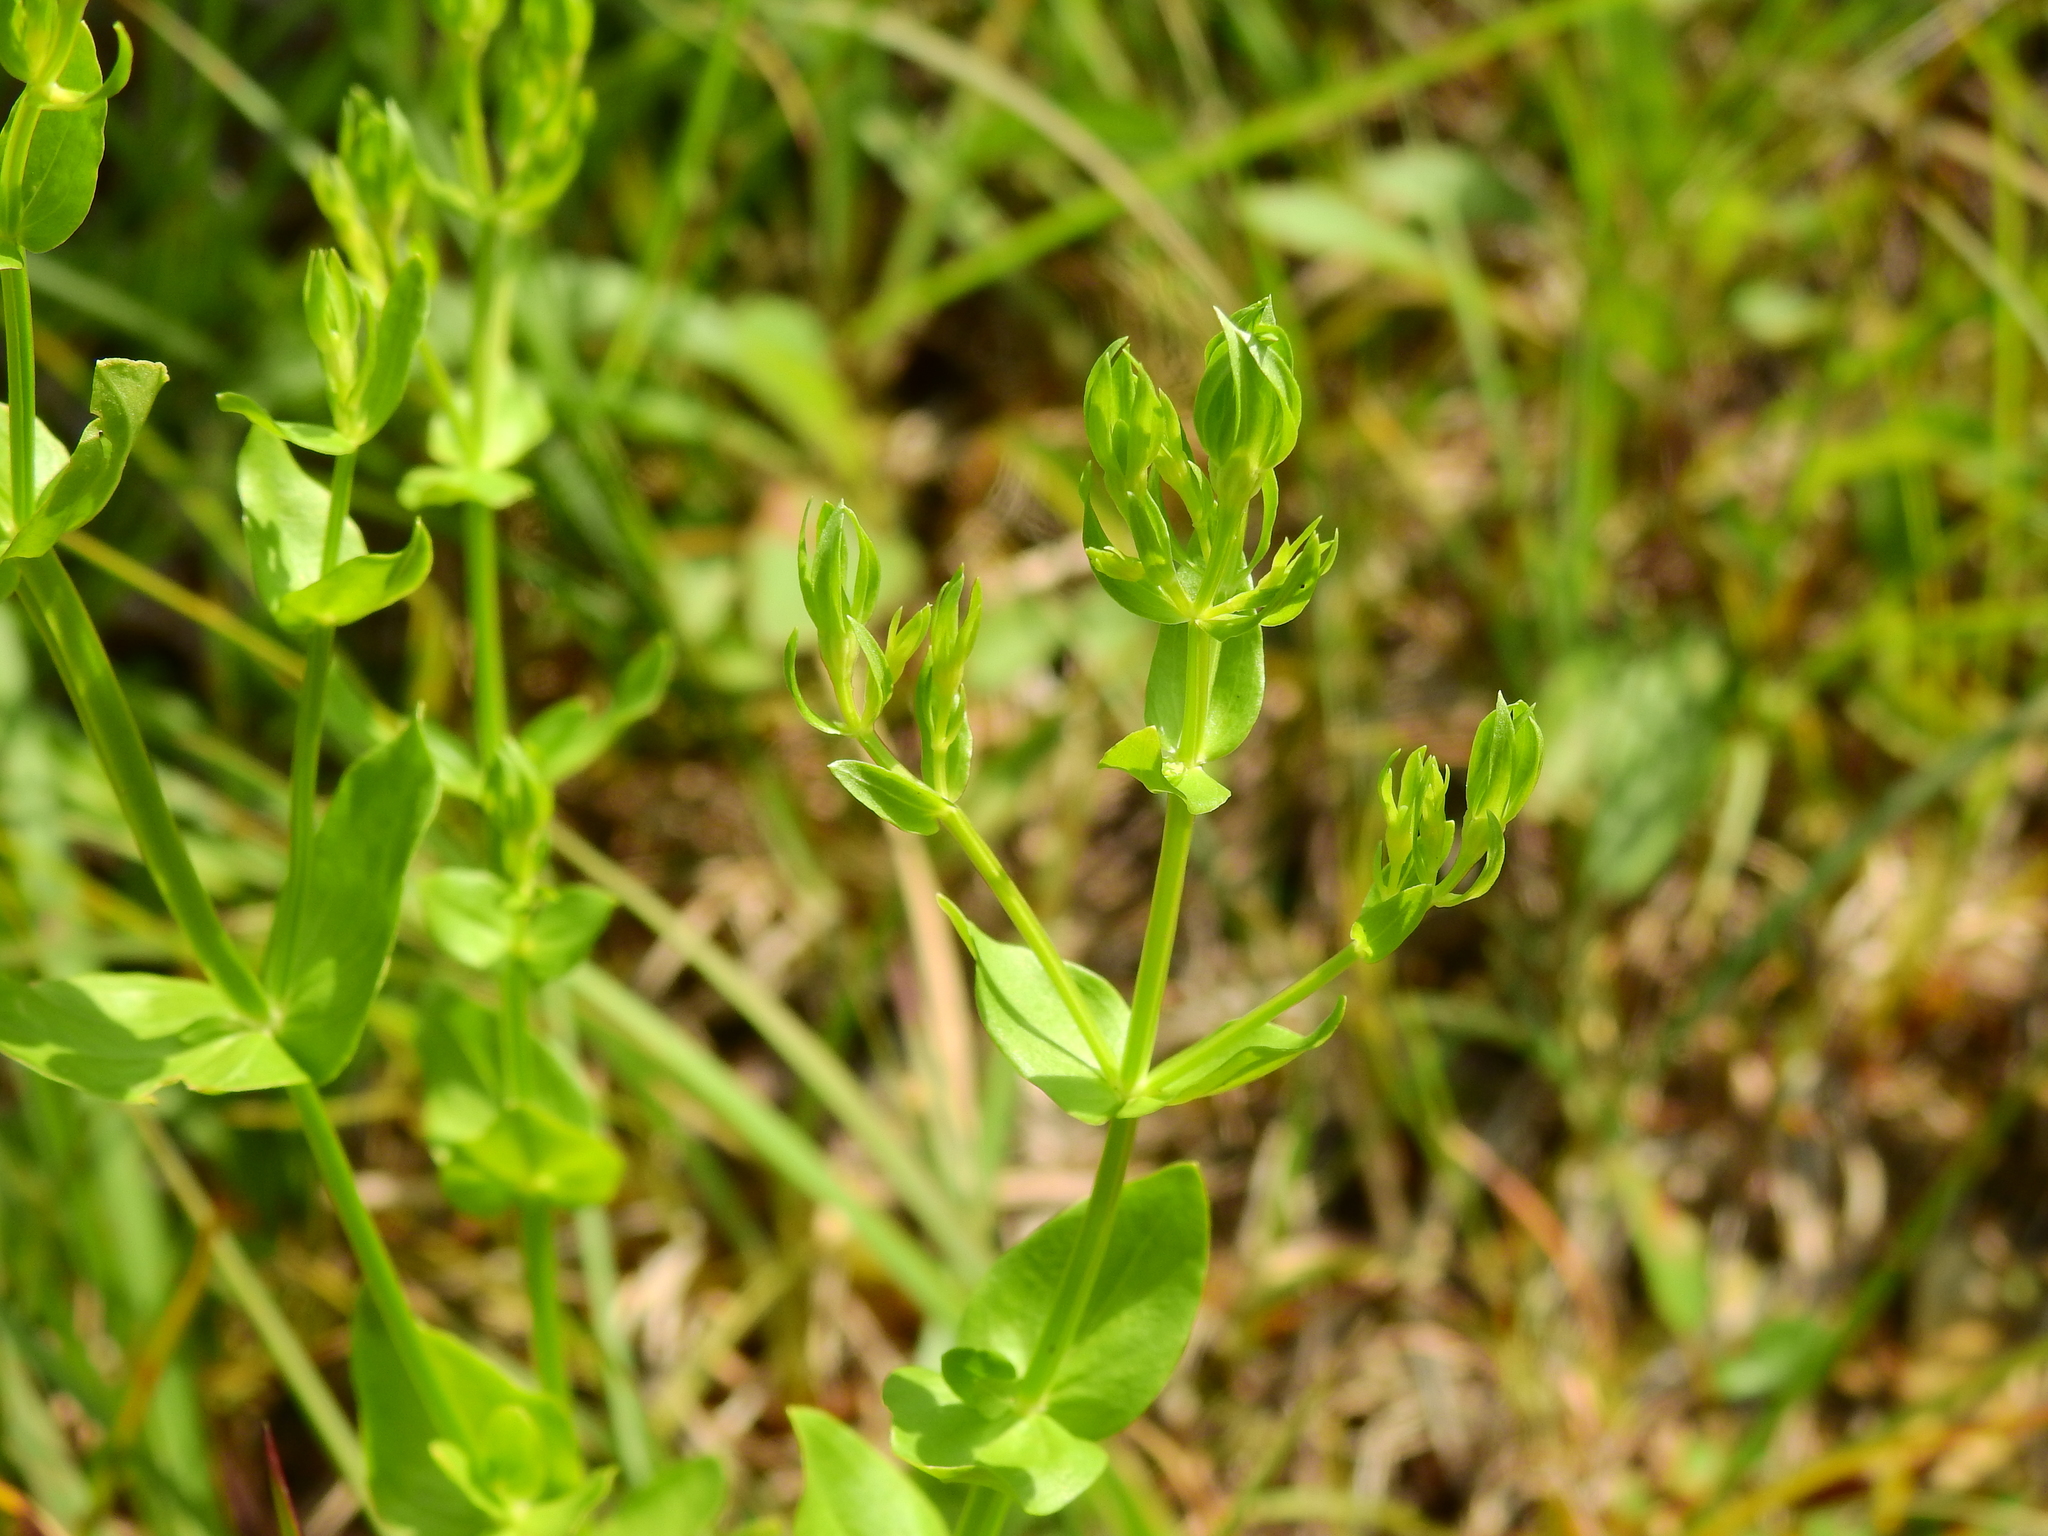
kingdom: Plantae
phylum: Tracheophyta
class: Magnoliopsida
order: Gentianales
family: Gentianaceae
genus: Sabatia
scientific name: Sabatia angularis
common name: Rose-pink
